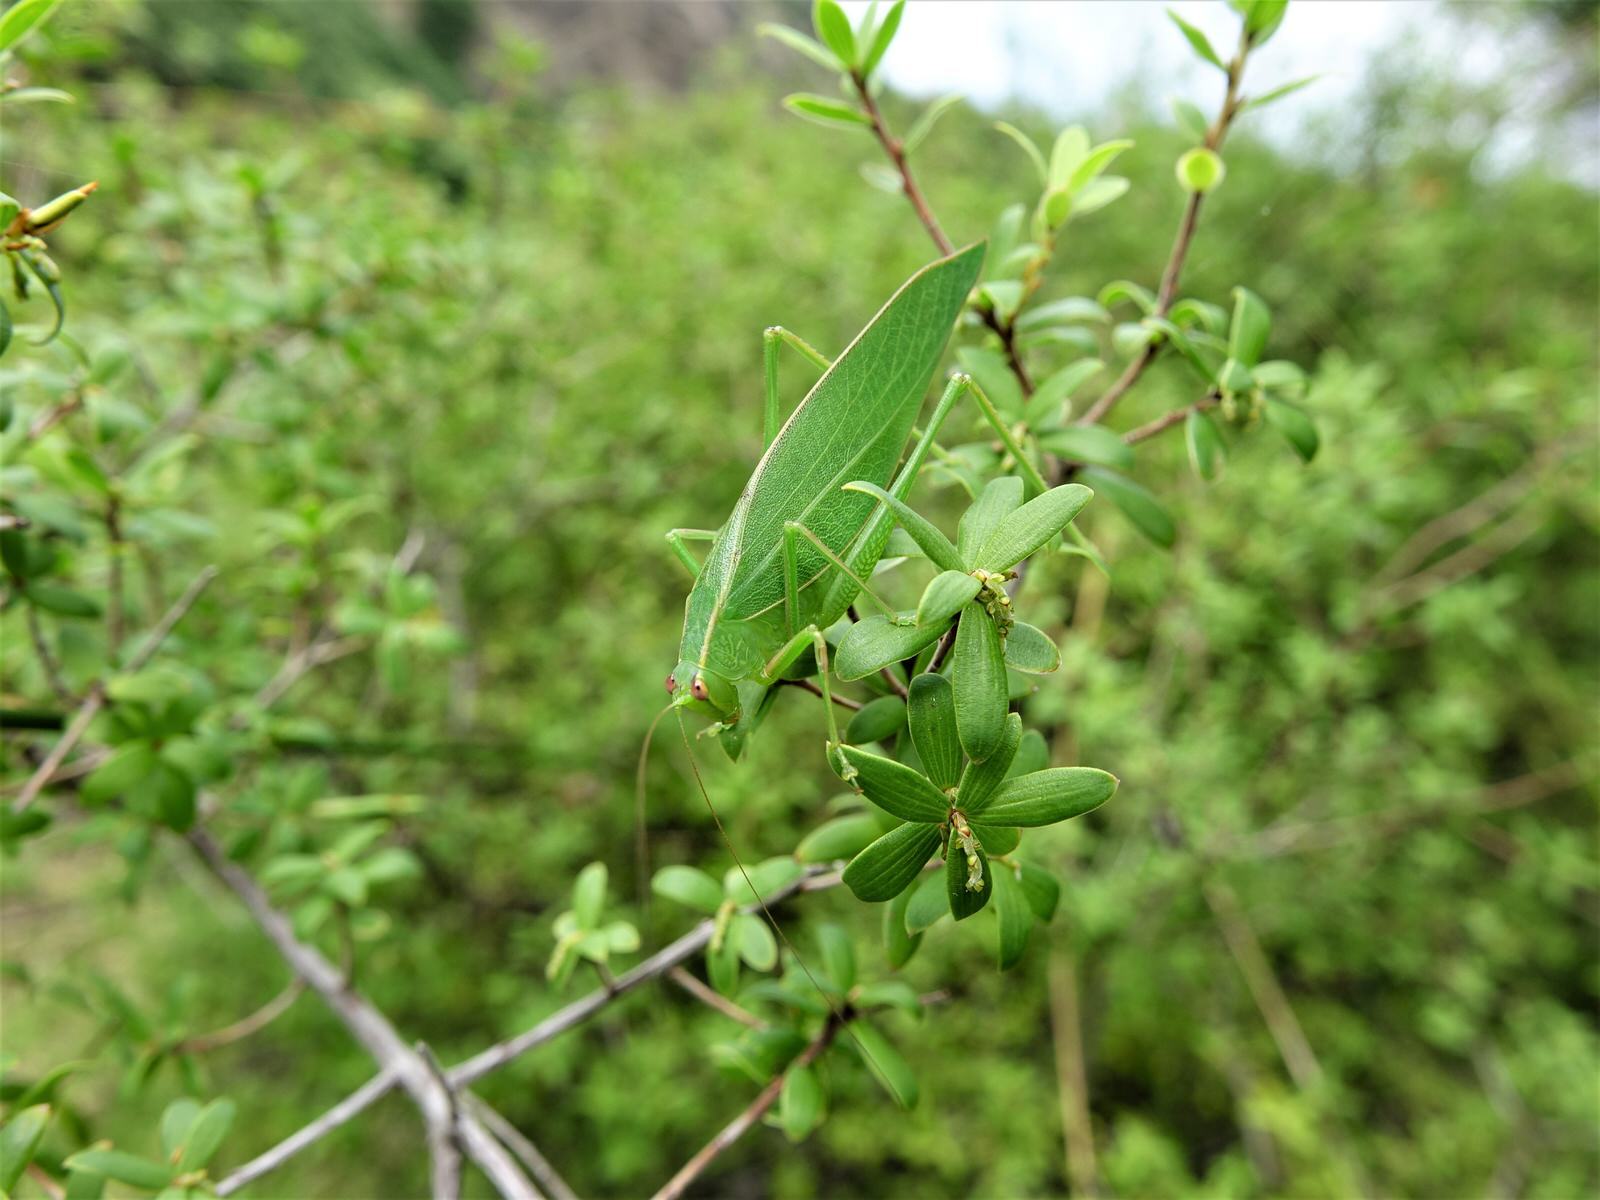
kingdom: Animalia
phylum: Arthropoda
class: Insecta
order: Orthoptera
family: Tettigoniidae
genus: Caedicia
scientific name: Caedicia simplex
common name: Common garden katydid
